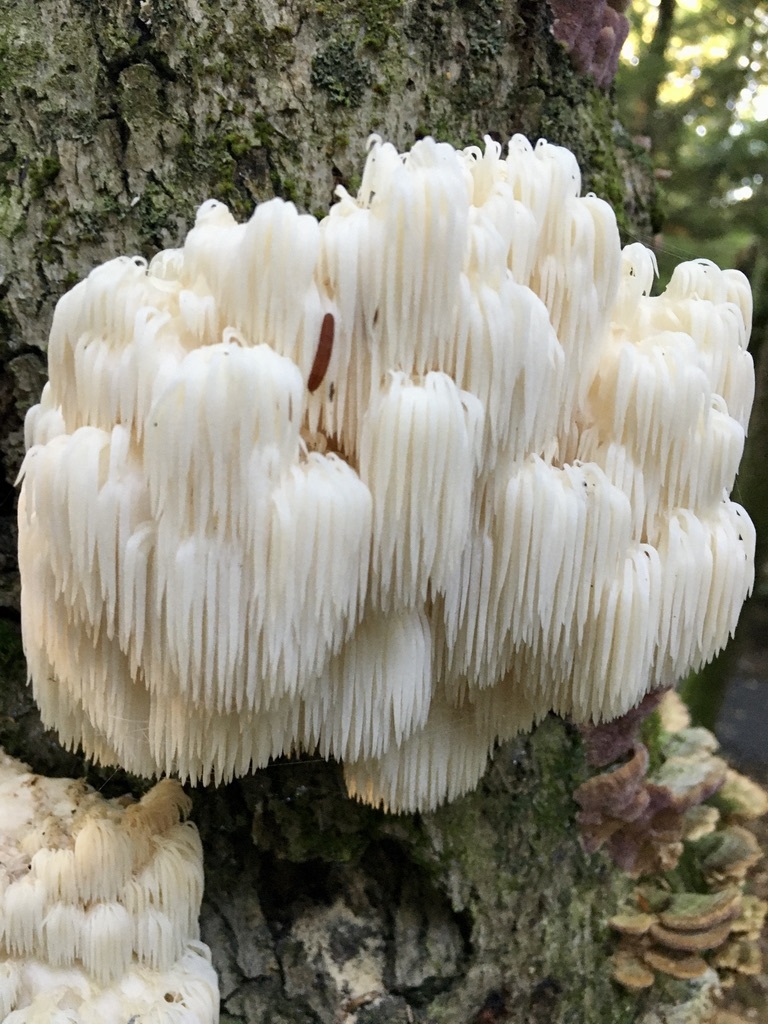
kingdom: Fungi
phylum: Basidiomycota
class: Agaricomycetes
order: Russulales
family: Hericiaceae
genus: Hericium
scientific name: Hericium americanum
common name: Bear's head tooth
